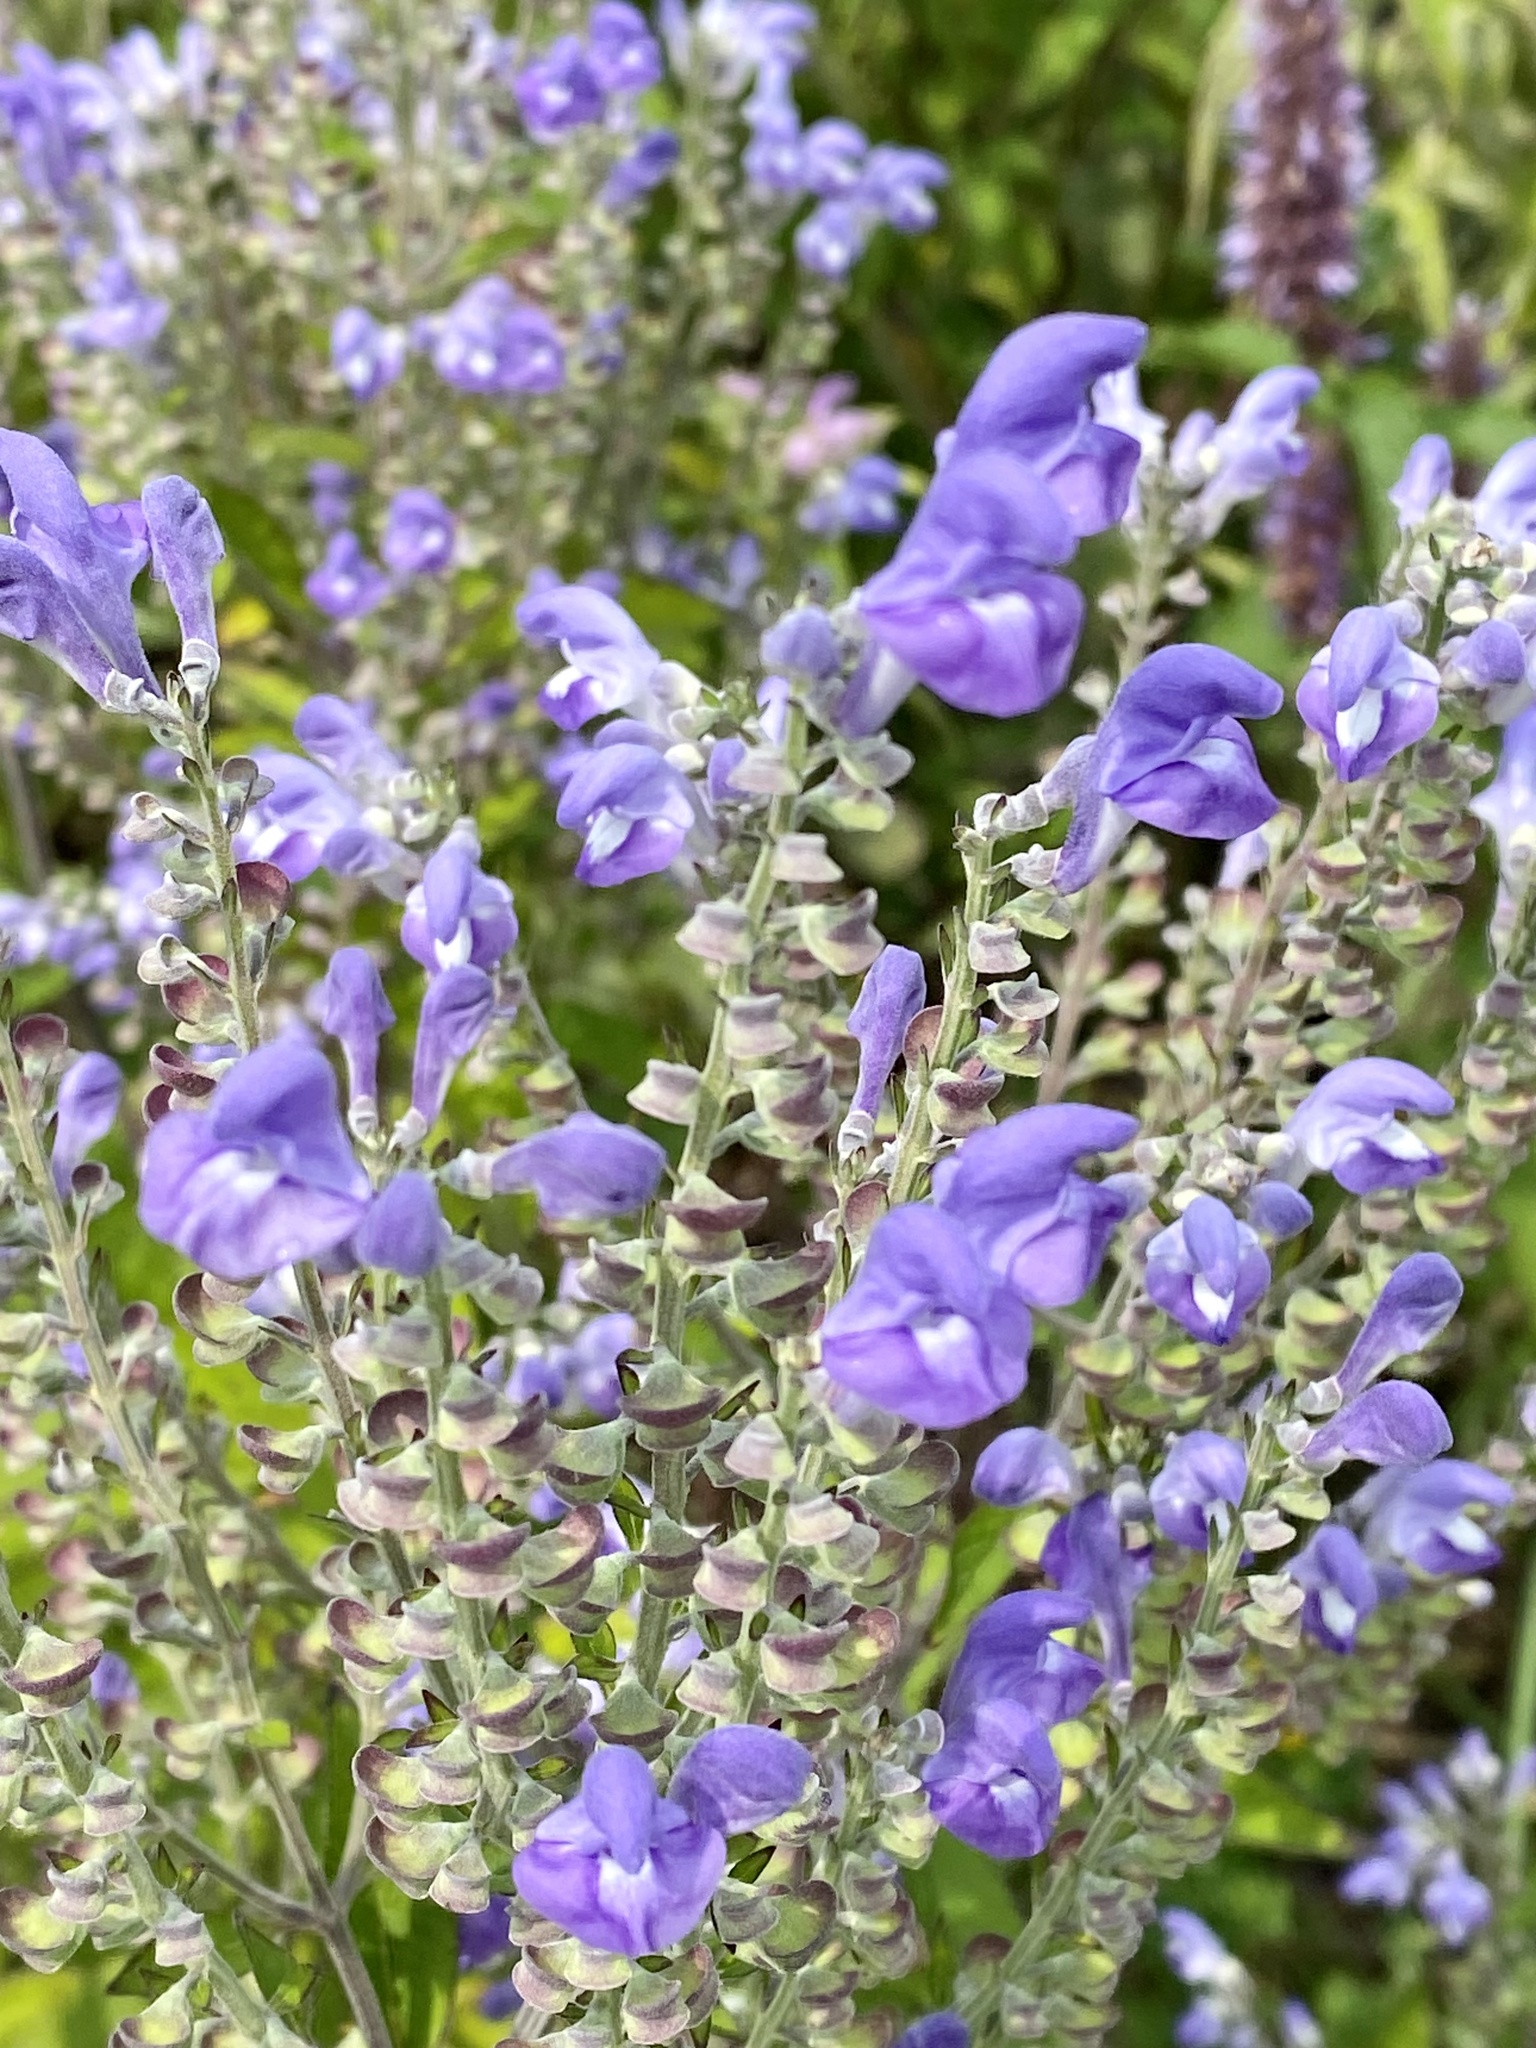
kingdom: Plantae
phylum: Tracheophyta
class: Magnoliopsida
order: Lamiales
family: Lamiaceae
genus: Scutellaria
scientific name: Scutellaria incana
